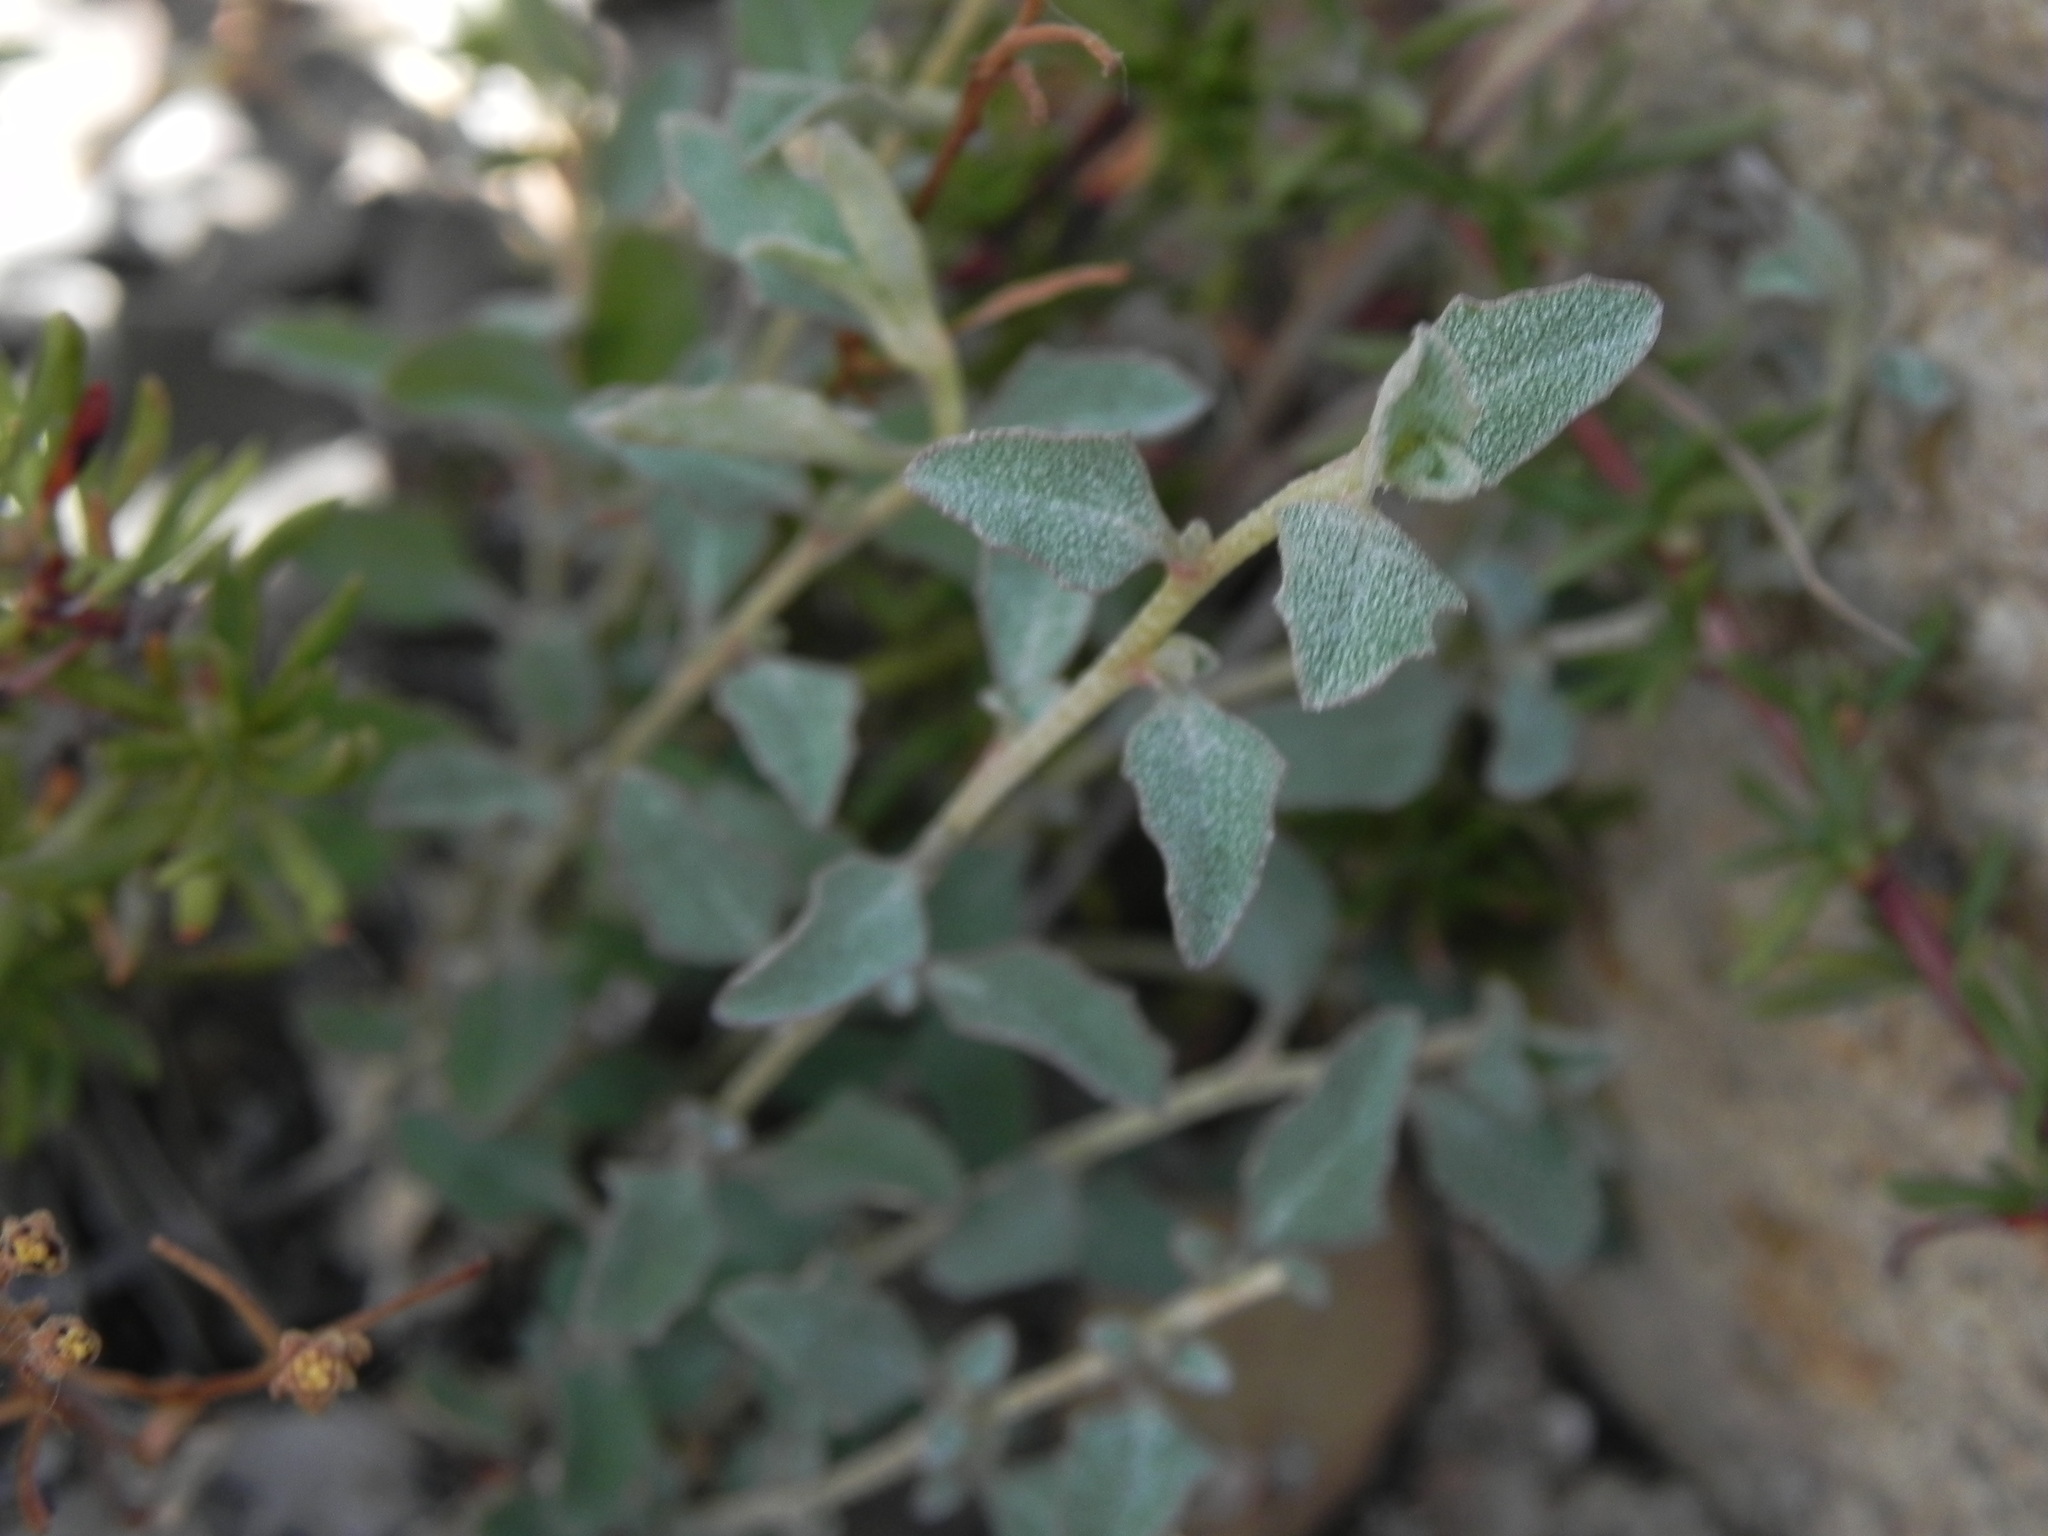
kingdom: Plantae
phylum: Tracheophyta
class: Magnoliopsida
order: Caryophyllales
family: Amaranthaceae
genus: Atriplex
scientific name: Atriplex semibaccata
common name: Australian saltbush
